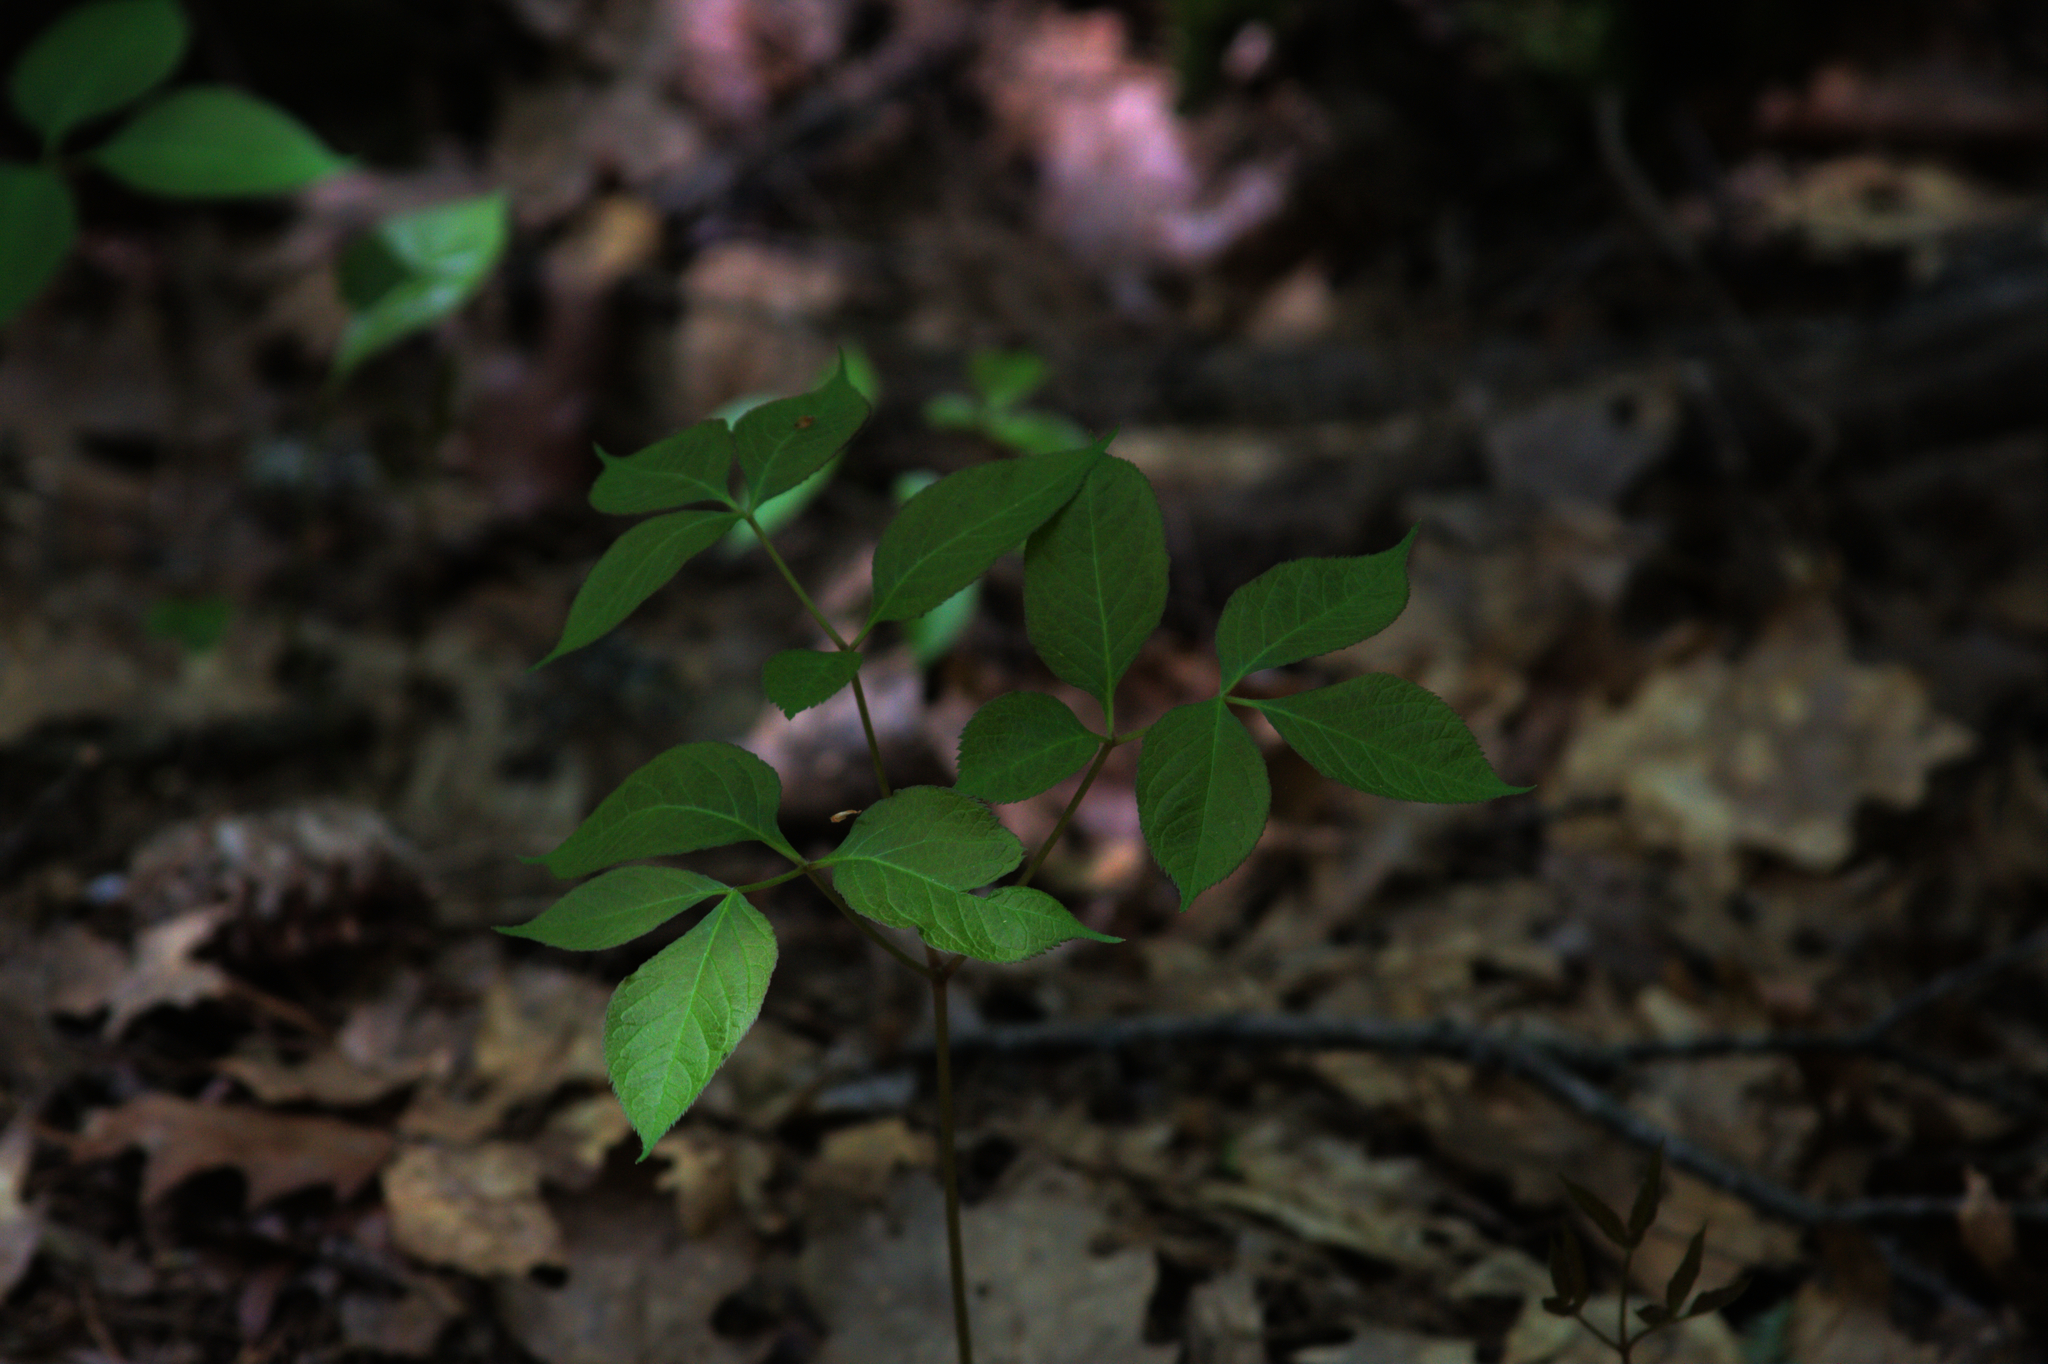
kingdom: Plantae
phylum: Tracheophyta
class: Magnoliopsida
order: Apiales
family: Araliaceae
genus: Aralia
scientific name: Aralia nudicaulis
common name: Wild sarsaparilla
